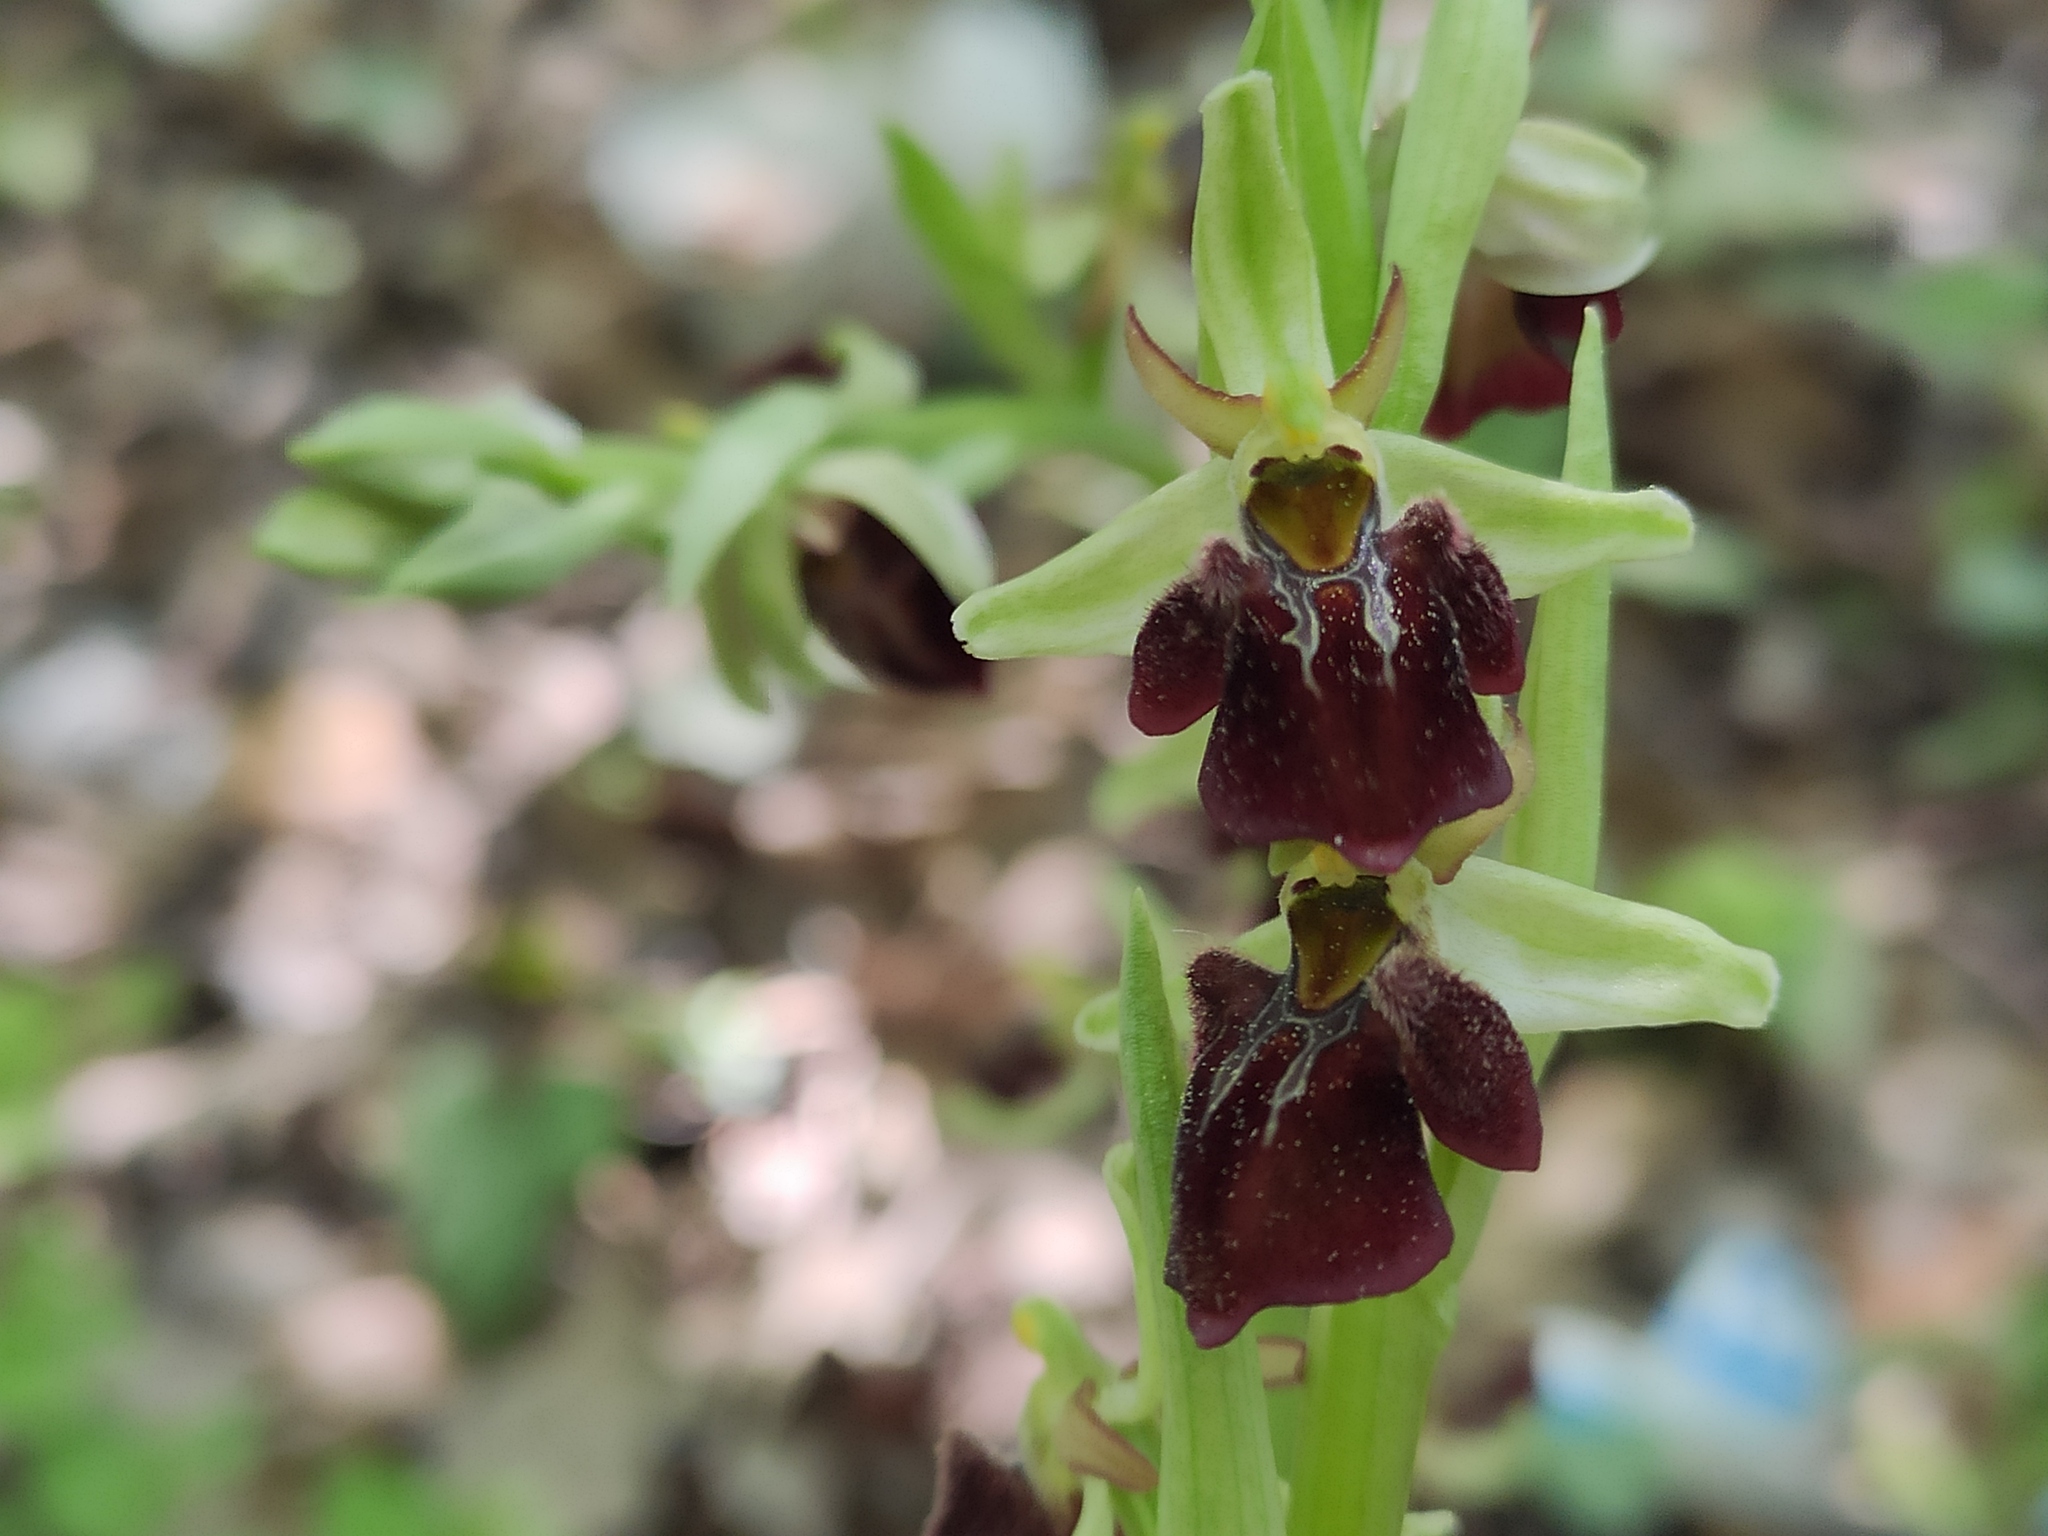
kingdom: Plantae
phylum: Tracheophyta
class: Liliopsida
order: Asparagales
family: Orchidaceae
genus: Ophrys
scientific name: Ophrys sphegodes
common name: Early spider-orchid
